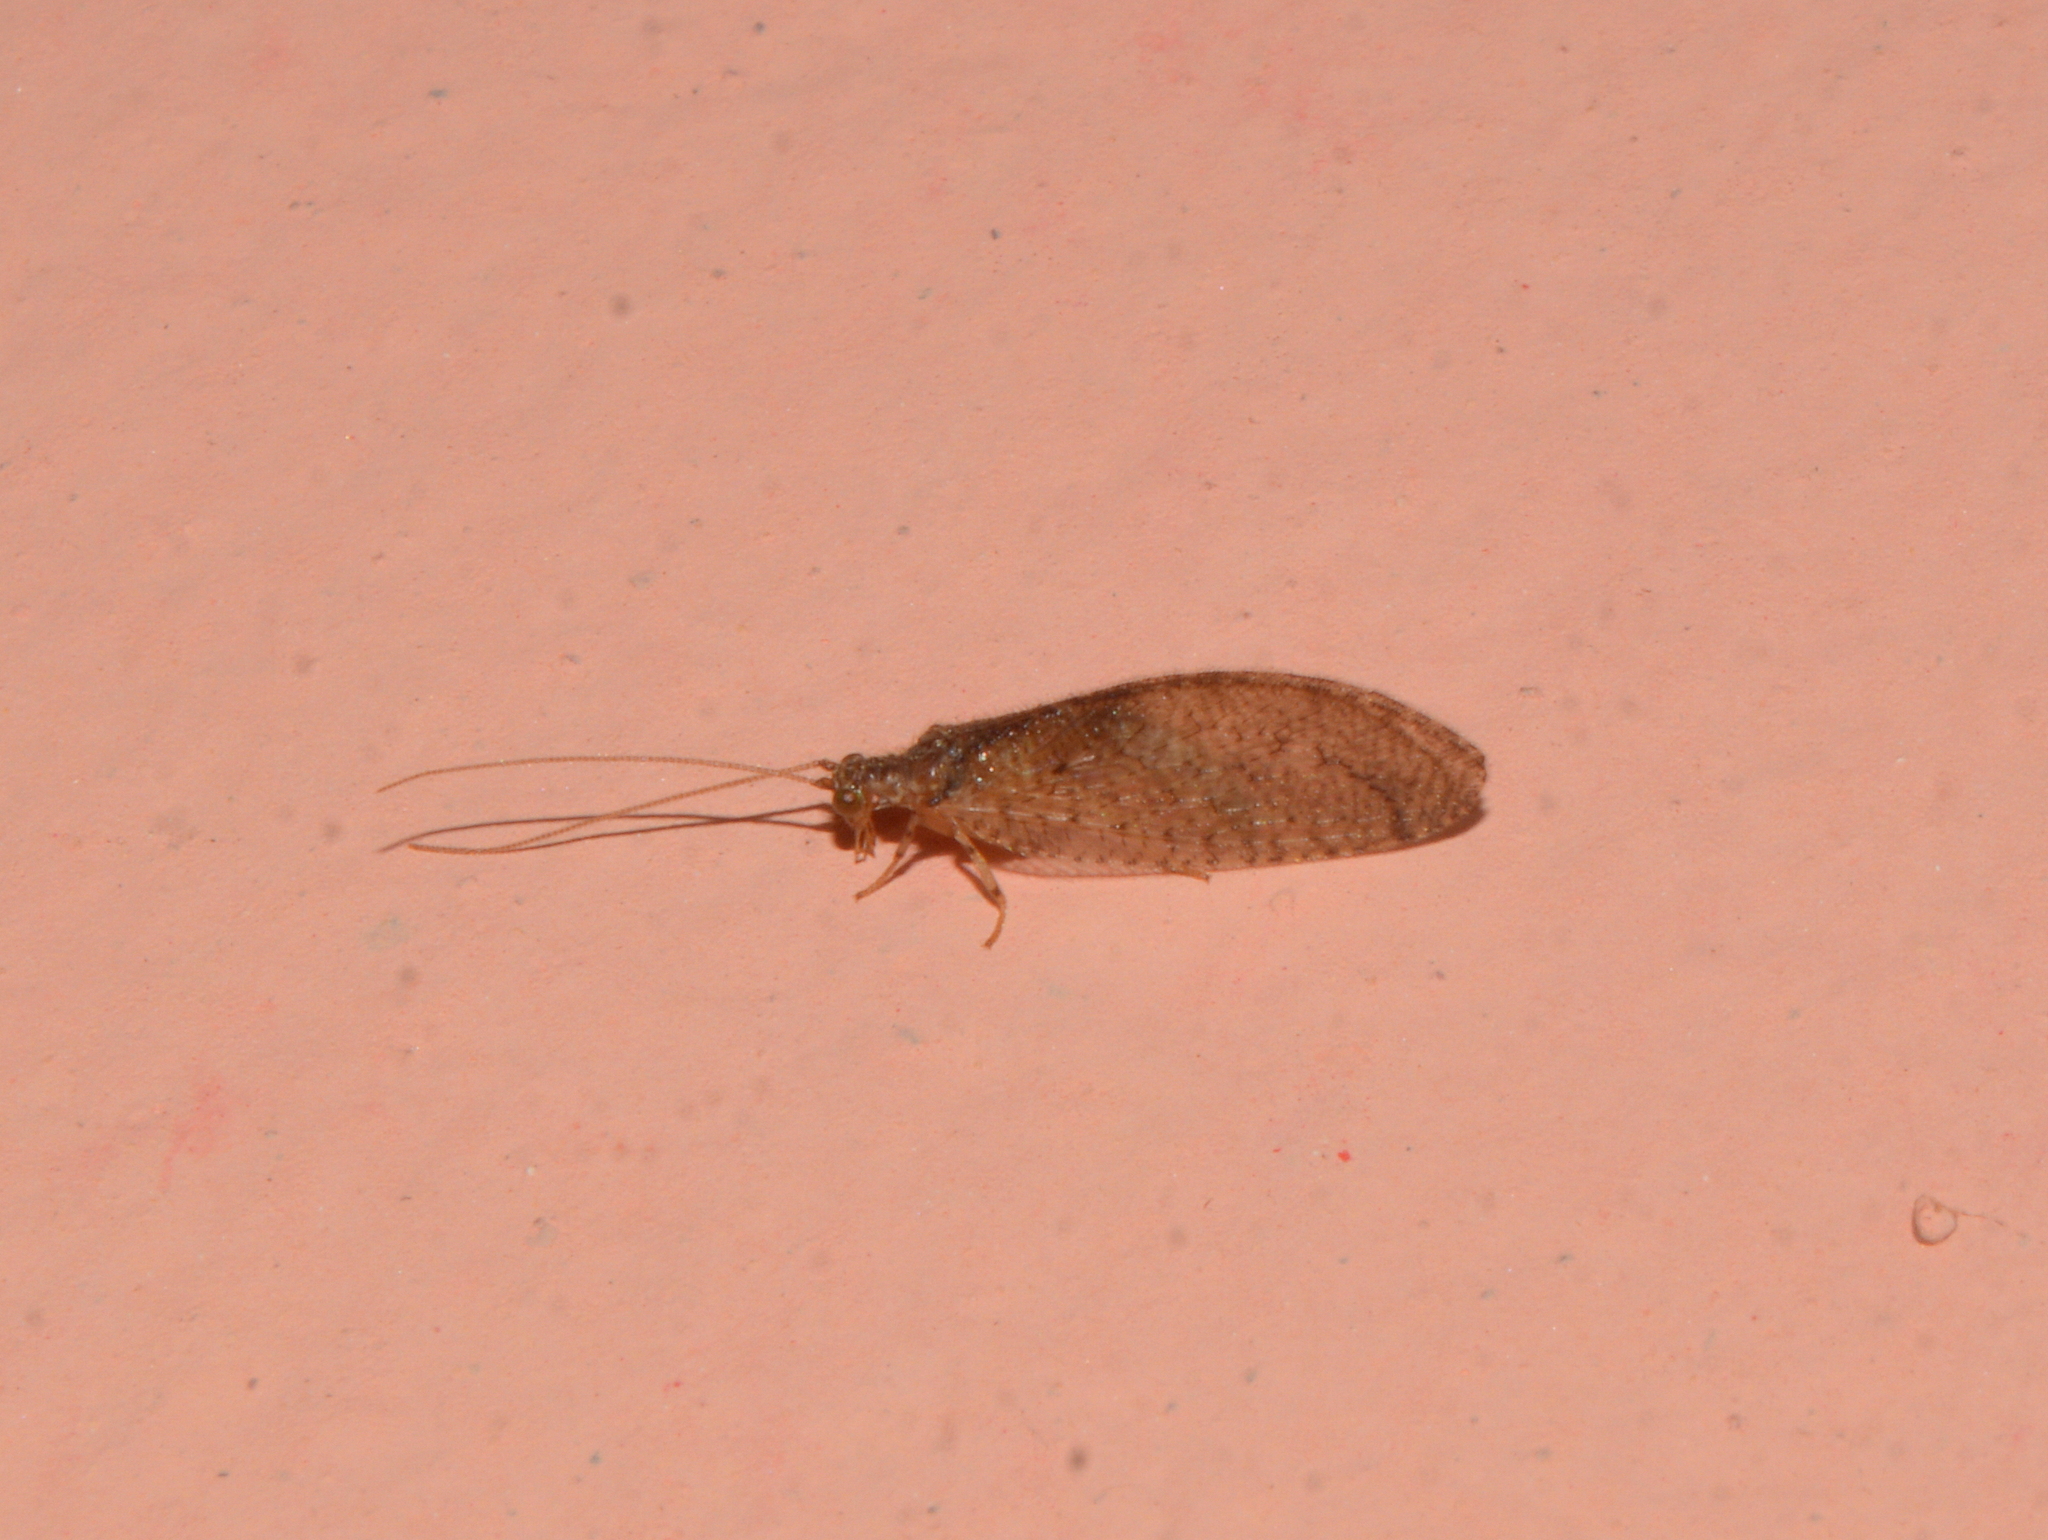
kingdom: Animalia
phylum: Arthropoda
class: Insecta
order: Neuroptera
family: Hemerobiidae
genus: Nusalala
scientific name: Nusalala tessellata
